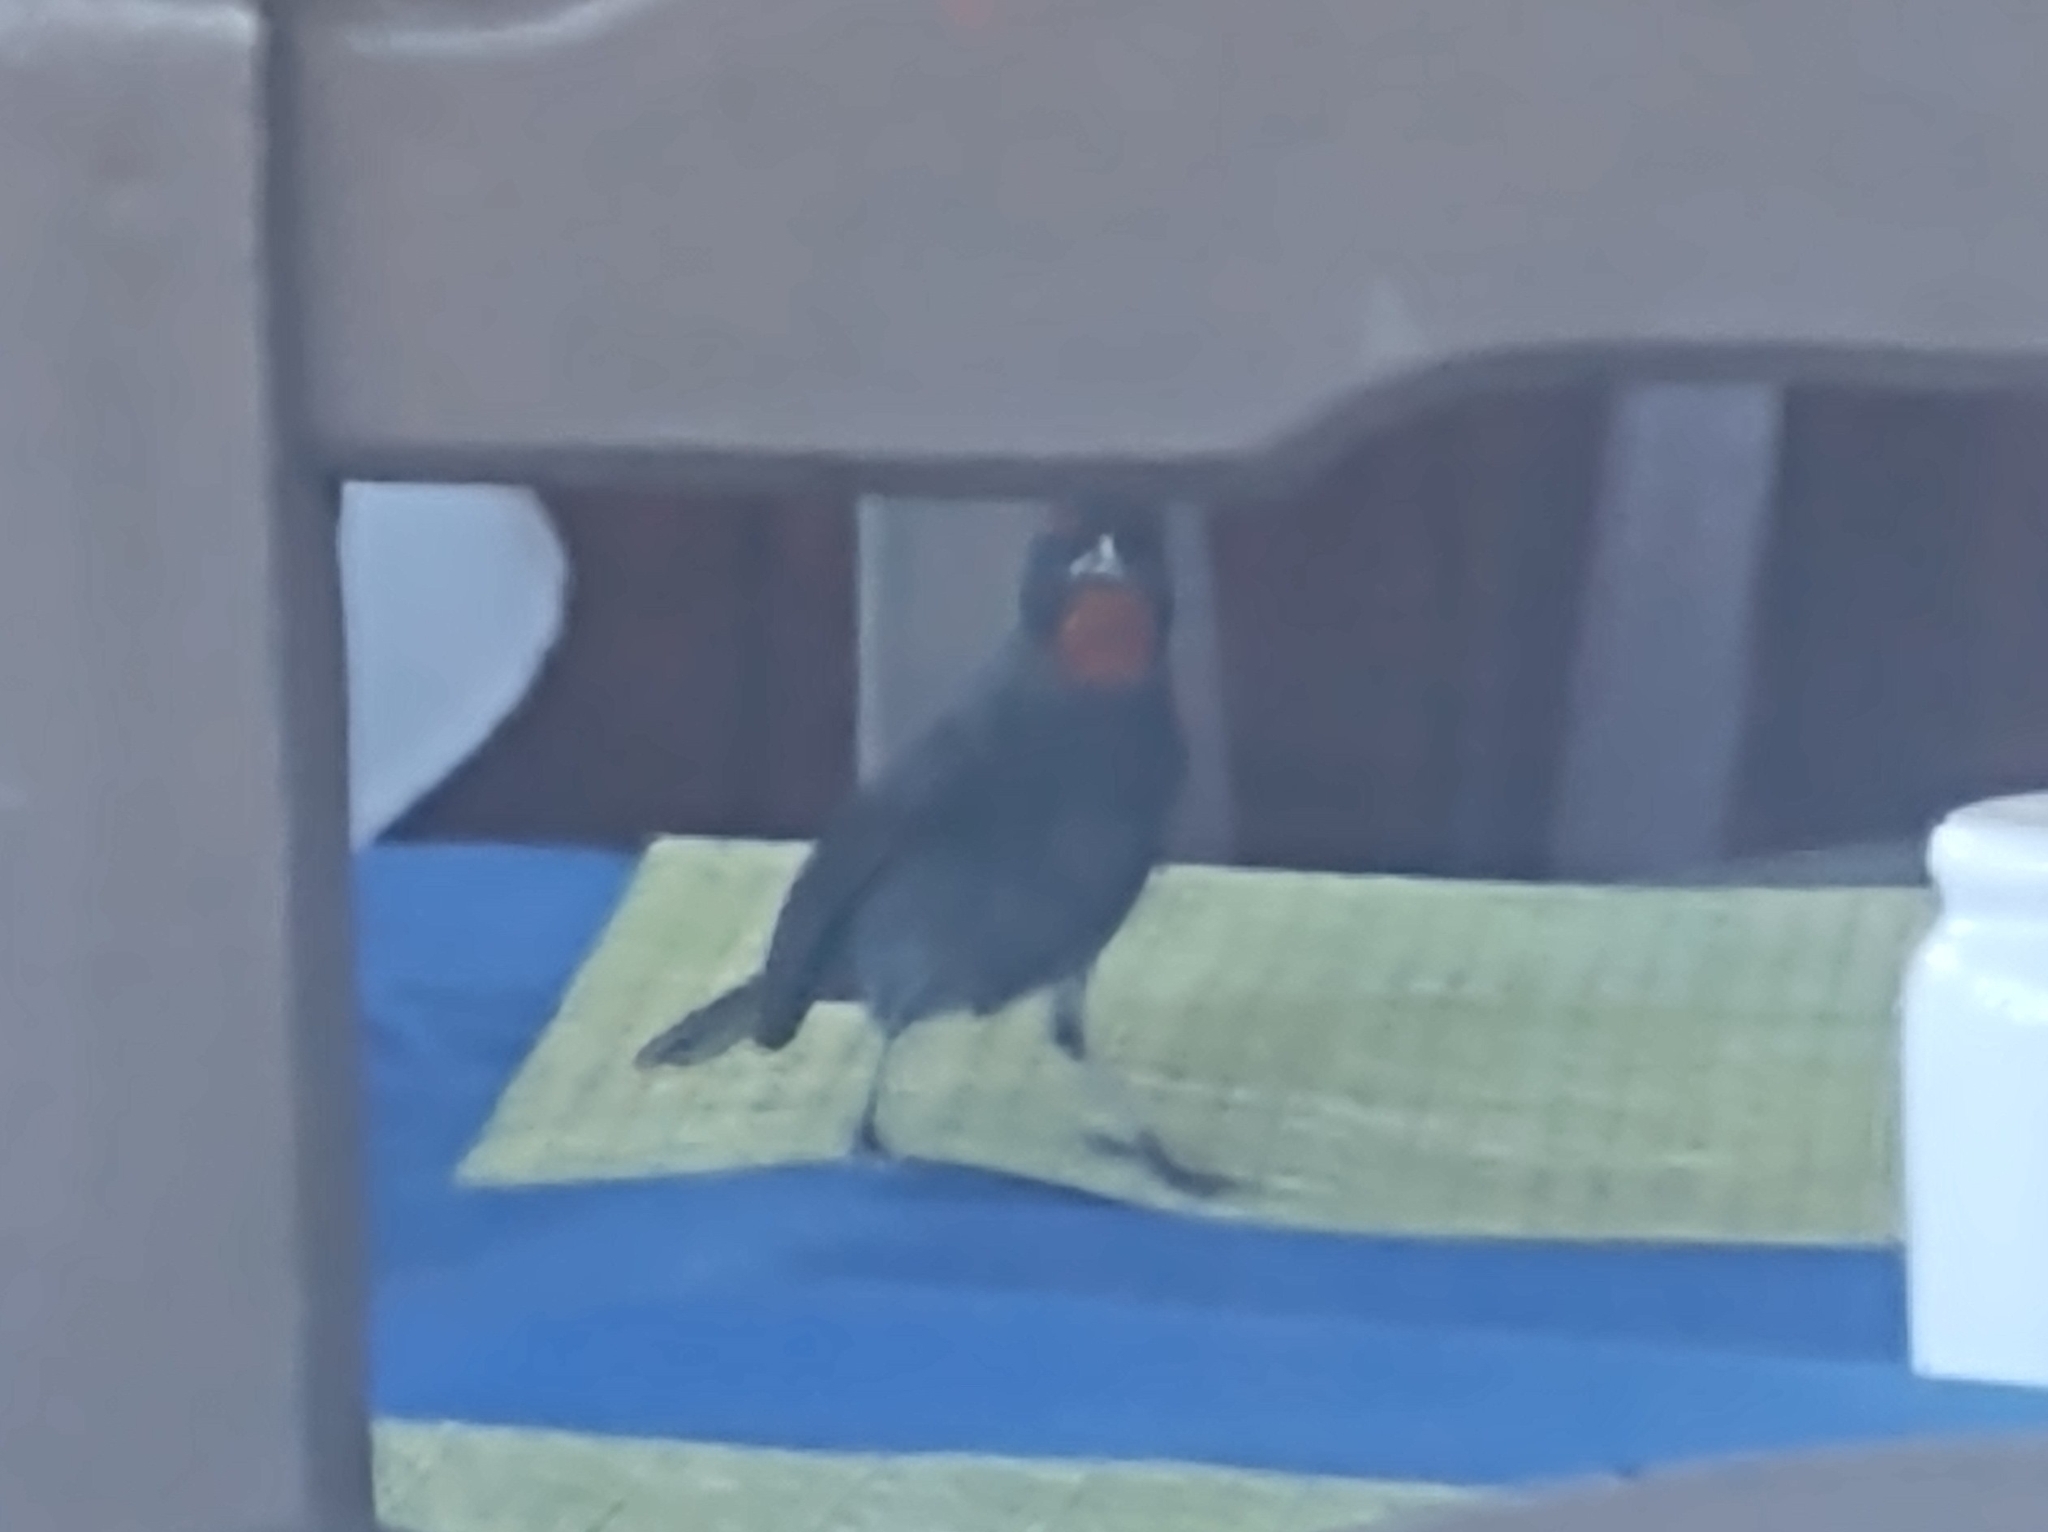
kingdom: Animalia
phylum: Chordata
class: Aves
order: Passeriformes
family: Thraupidae
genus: Loxigilla
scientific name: Loxigilla noctis
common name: Lesser antillean bullfinch
